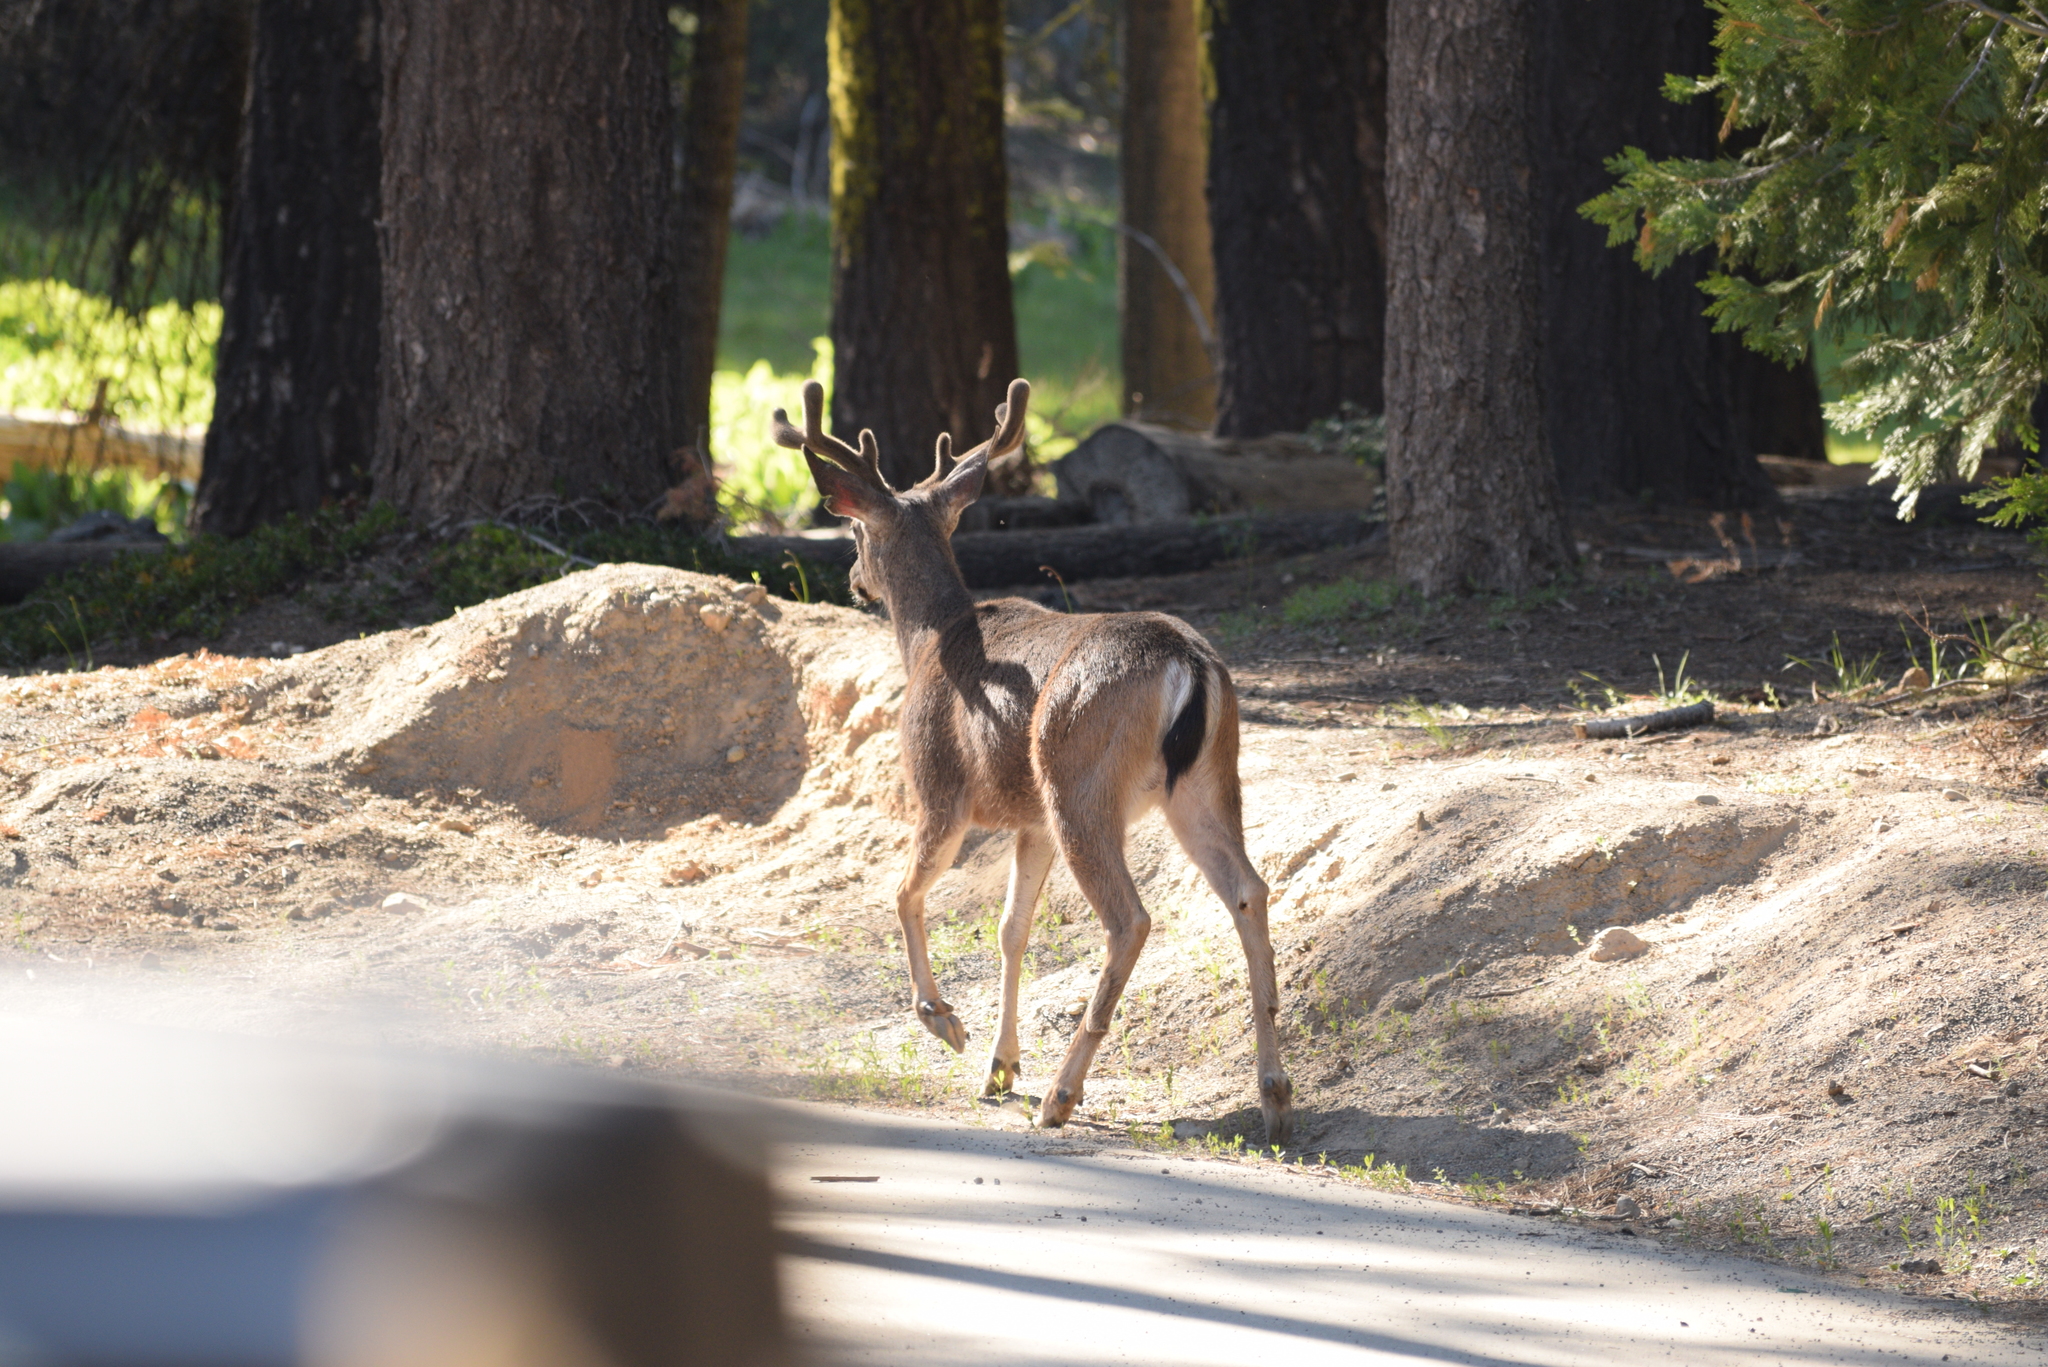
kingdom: Animalia
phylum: Chordata
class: Mammalia
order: Artiodactyla
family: Cervidae
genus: Odocoileus
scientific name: Odocoileus hemionus
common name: Mule deer
